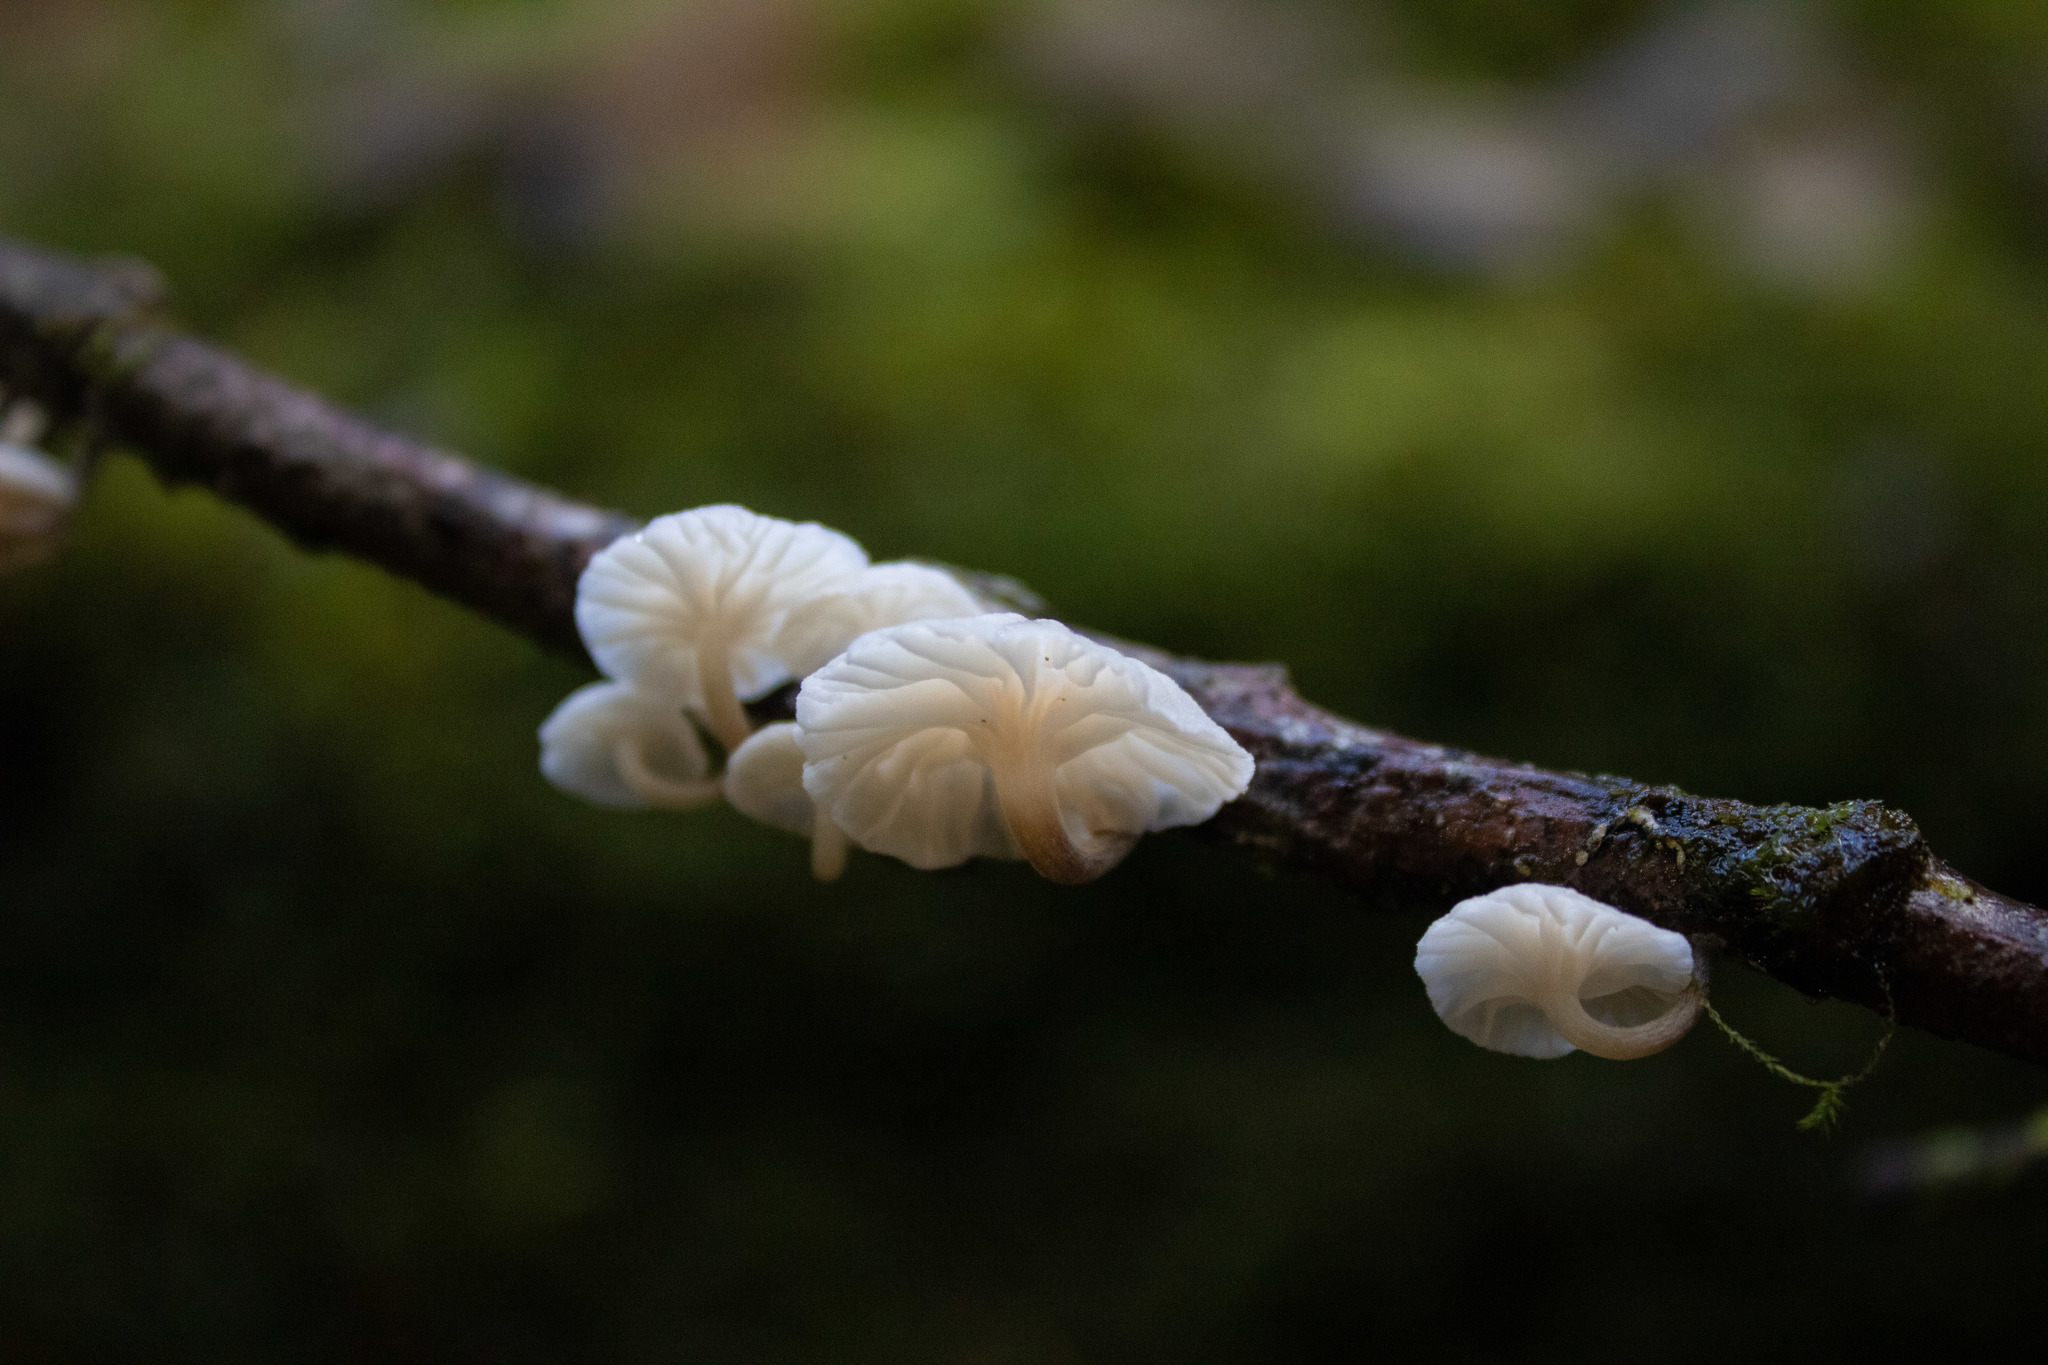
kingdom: Fungi
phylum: Basidiomycota
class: Agaricomycetes
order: Agaricales
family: Omphalotaceae
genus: Marasmiellus
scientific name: Marasmiellus candidus
